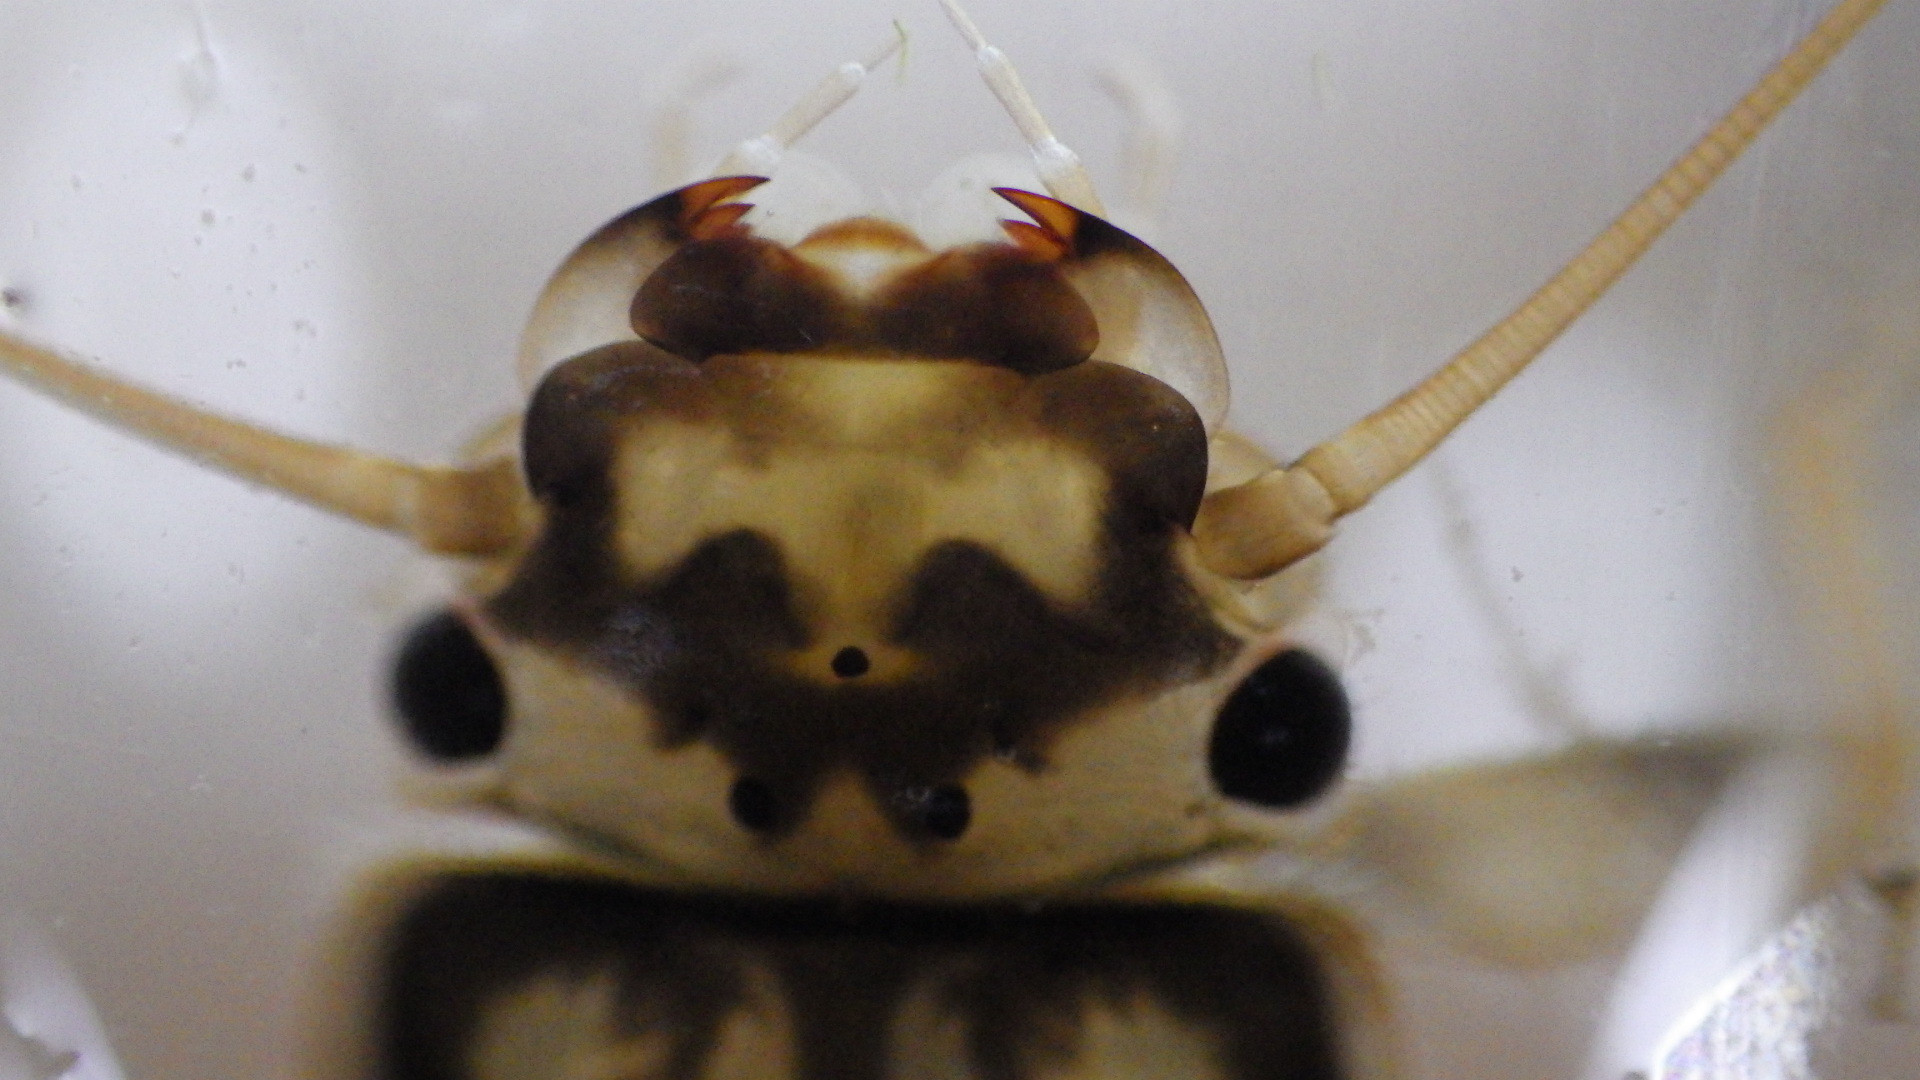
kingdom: Animalia
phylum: Arthropoda
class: Insecta
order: Plecoptera
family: Perlidae
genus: Eccoptura
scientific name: Eccoptura xanthenes
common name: Yellow stone
